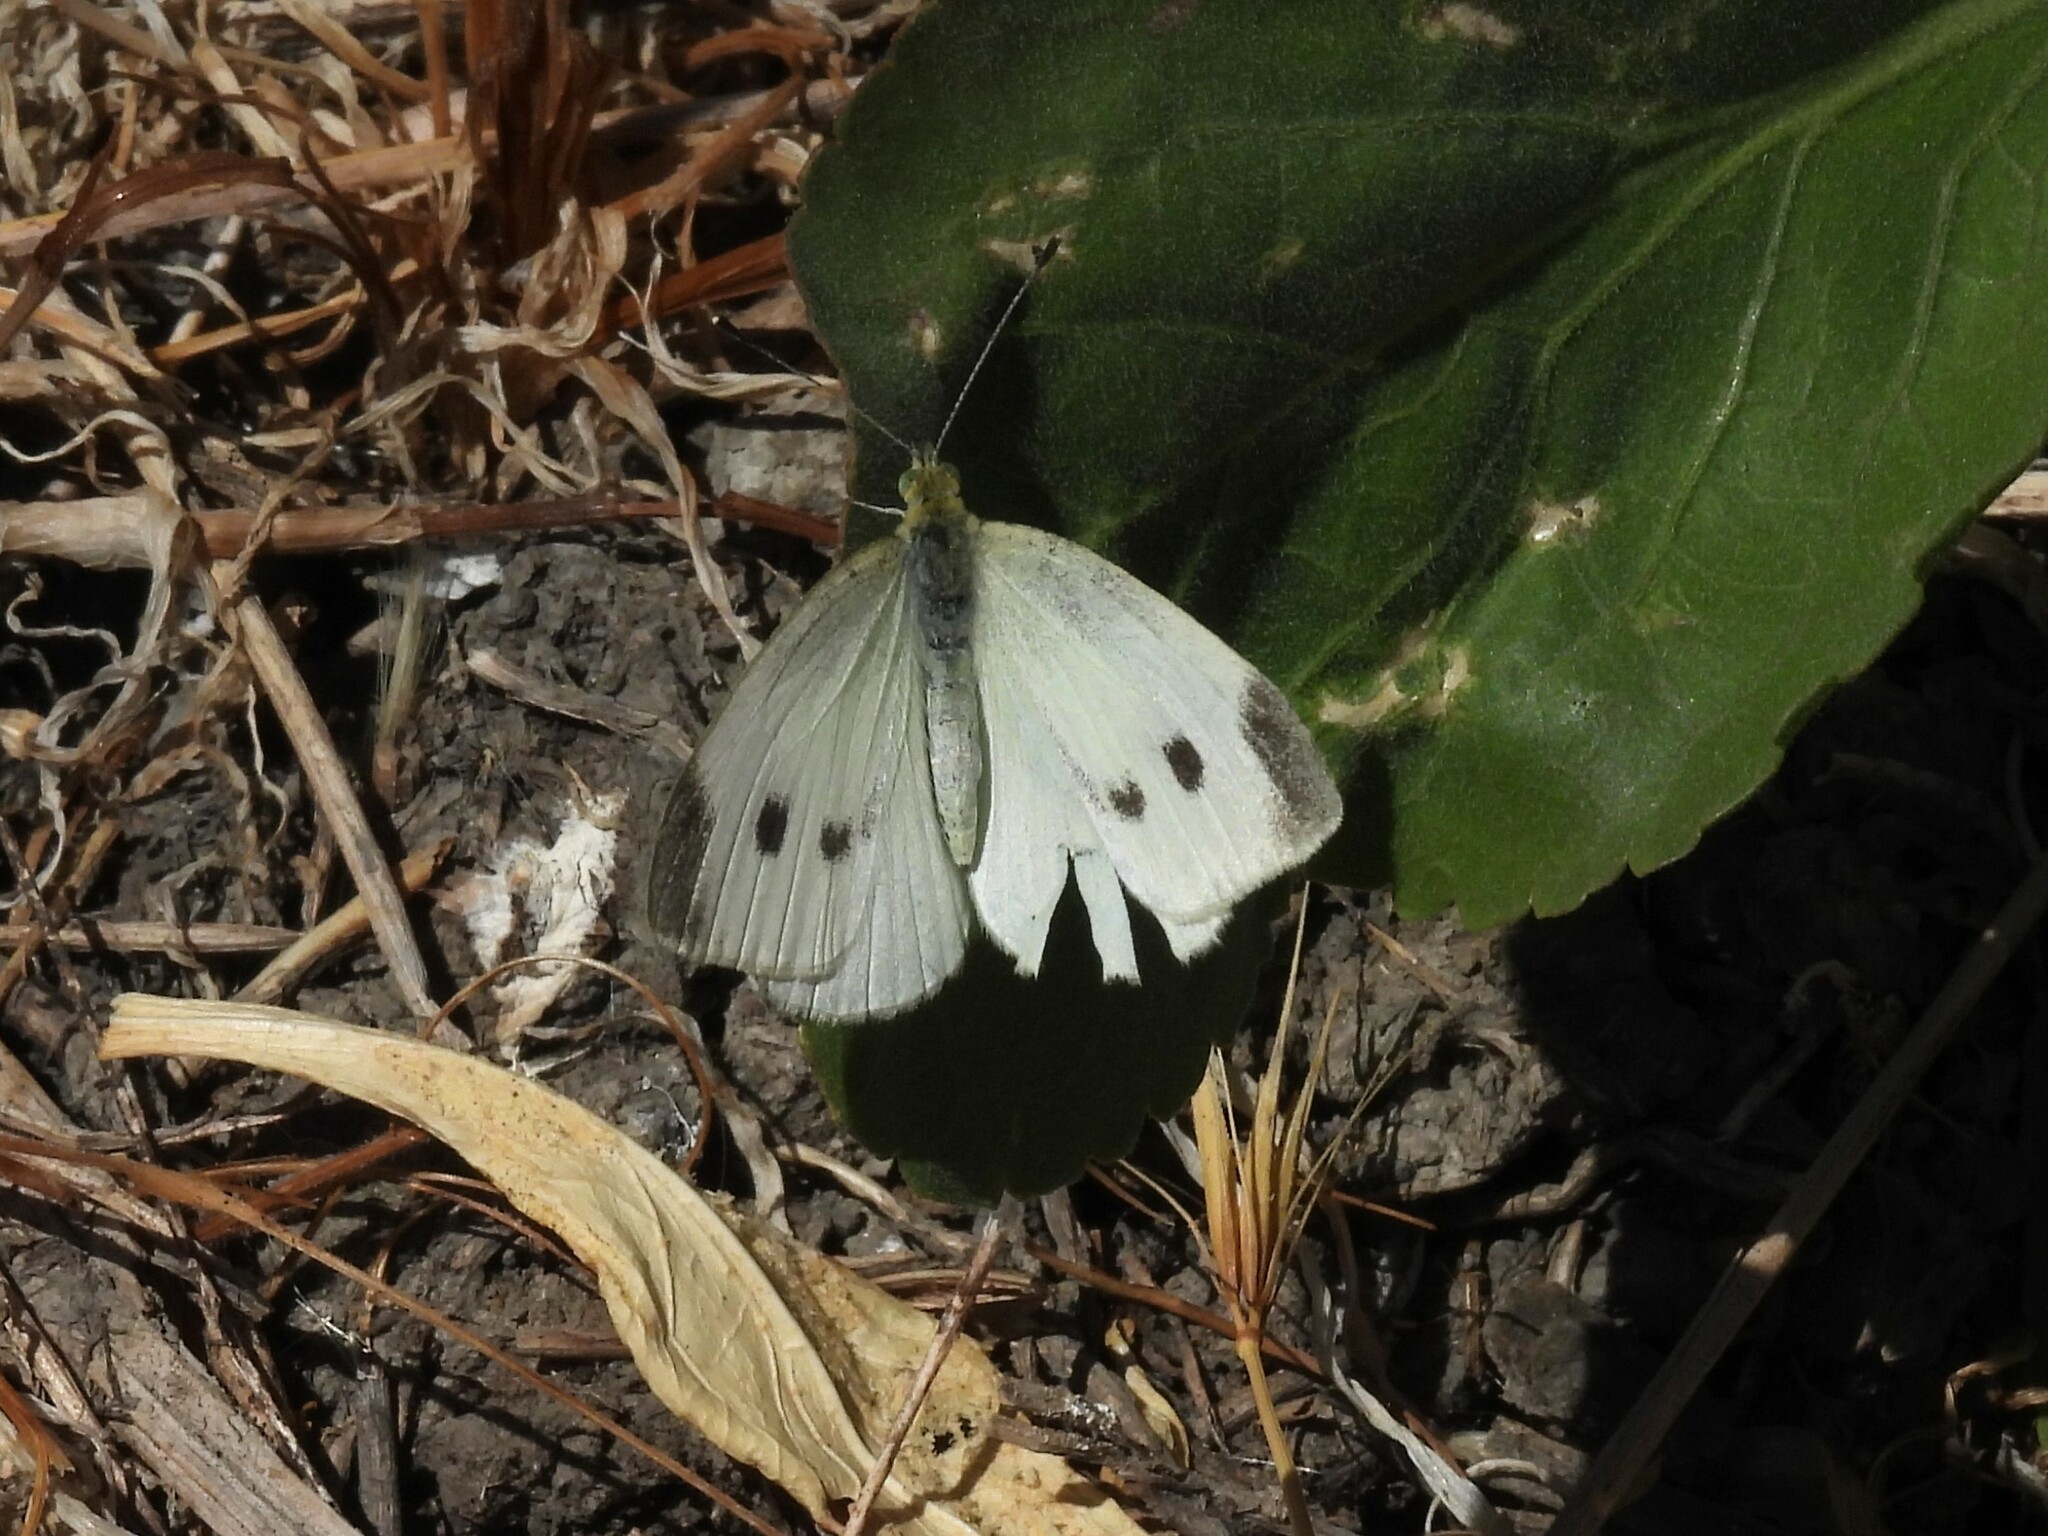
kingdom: Animalia
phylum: Arthropoda
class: Insecta
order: Lepidoptera
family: Pieridae
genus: Pieris
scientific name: Pieris rapae
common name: Small white
